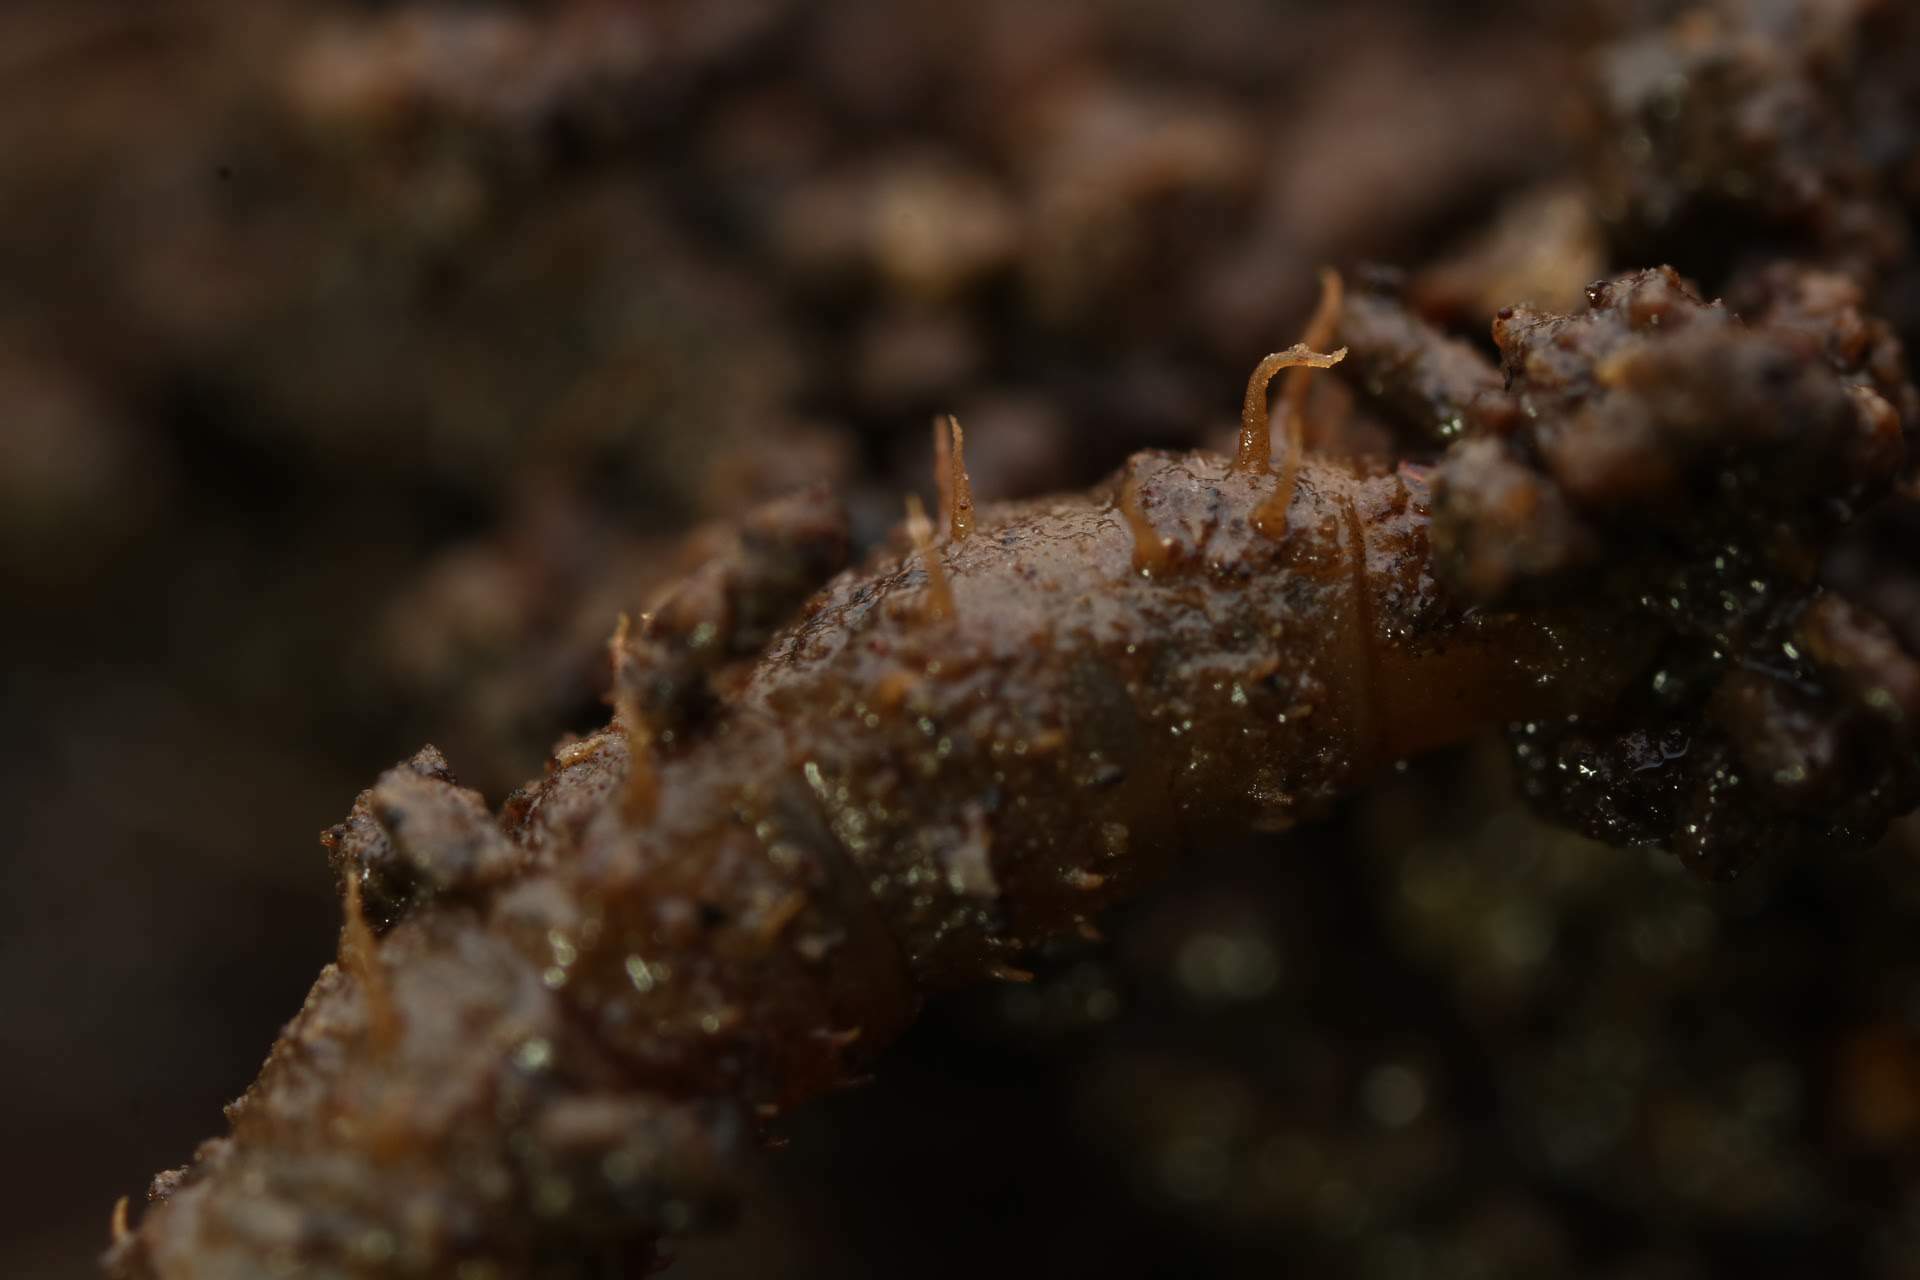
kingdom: Animalia
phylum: Arthropoda
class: Insecta
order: Diptera
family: Bibionidae
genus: Bibio
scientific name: Bibio
